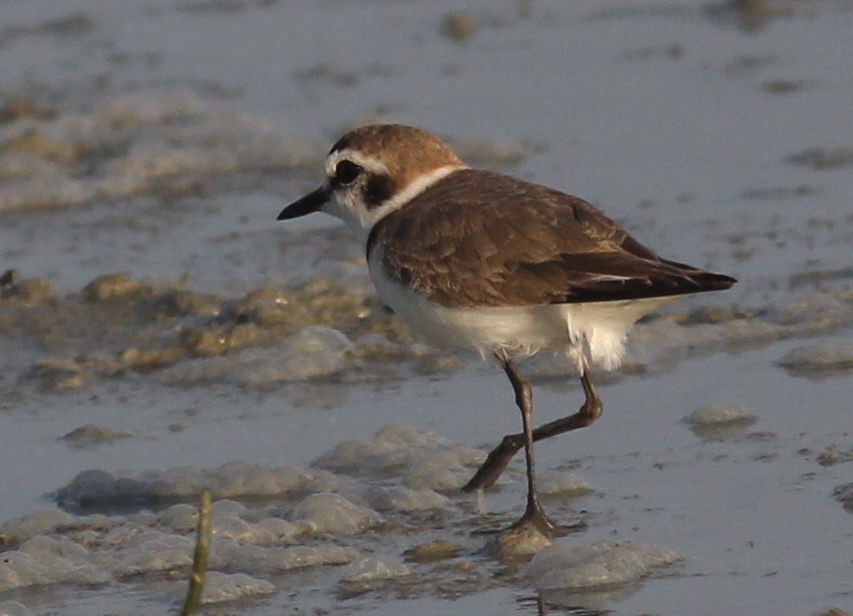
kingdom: Animalia
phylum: Chordata
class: Aves
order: Charadriiformes
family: Charadriidae
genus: Charadrius
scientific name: Charadrius alexandrinus
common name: Kentish plover
